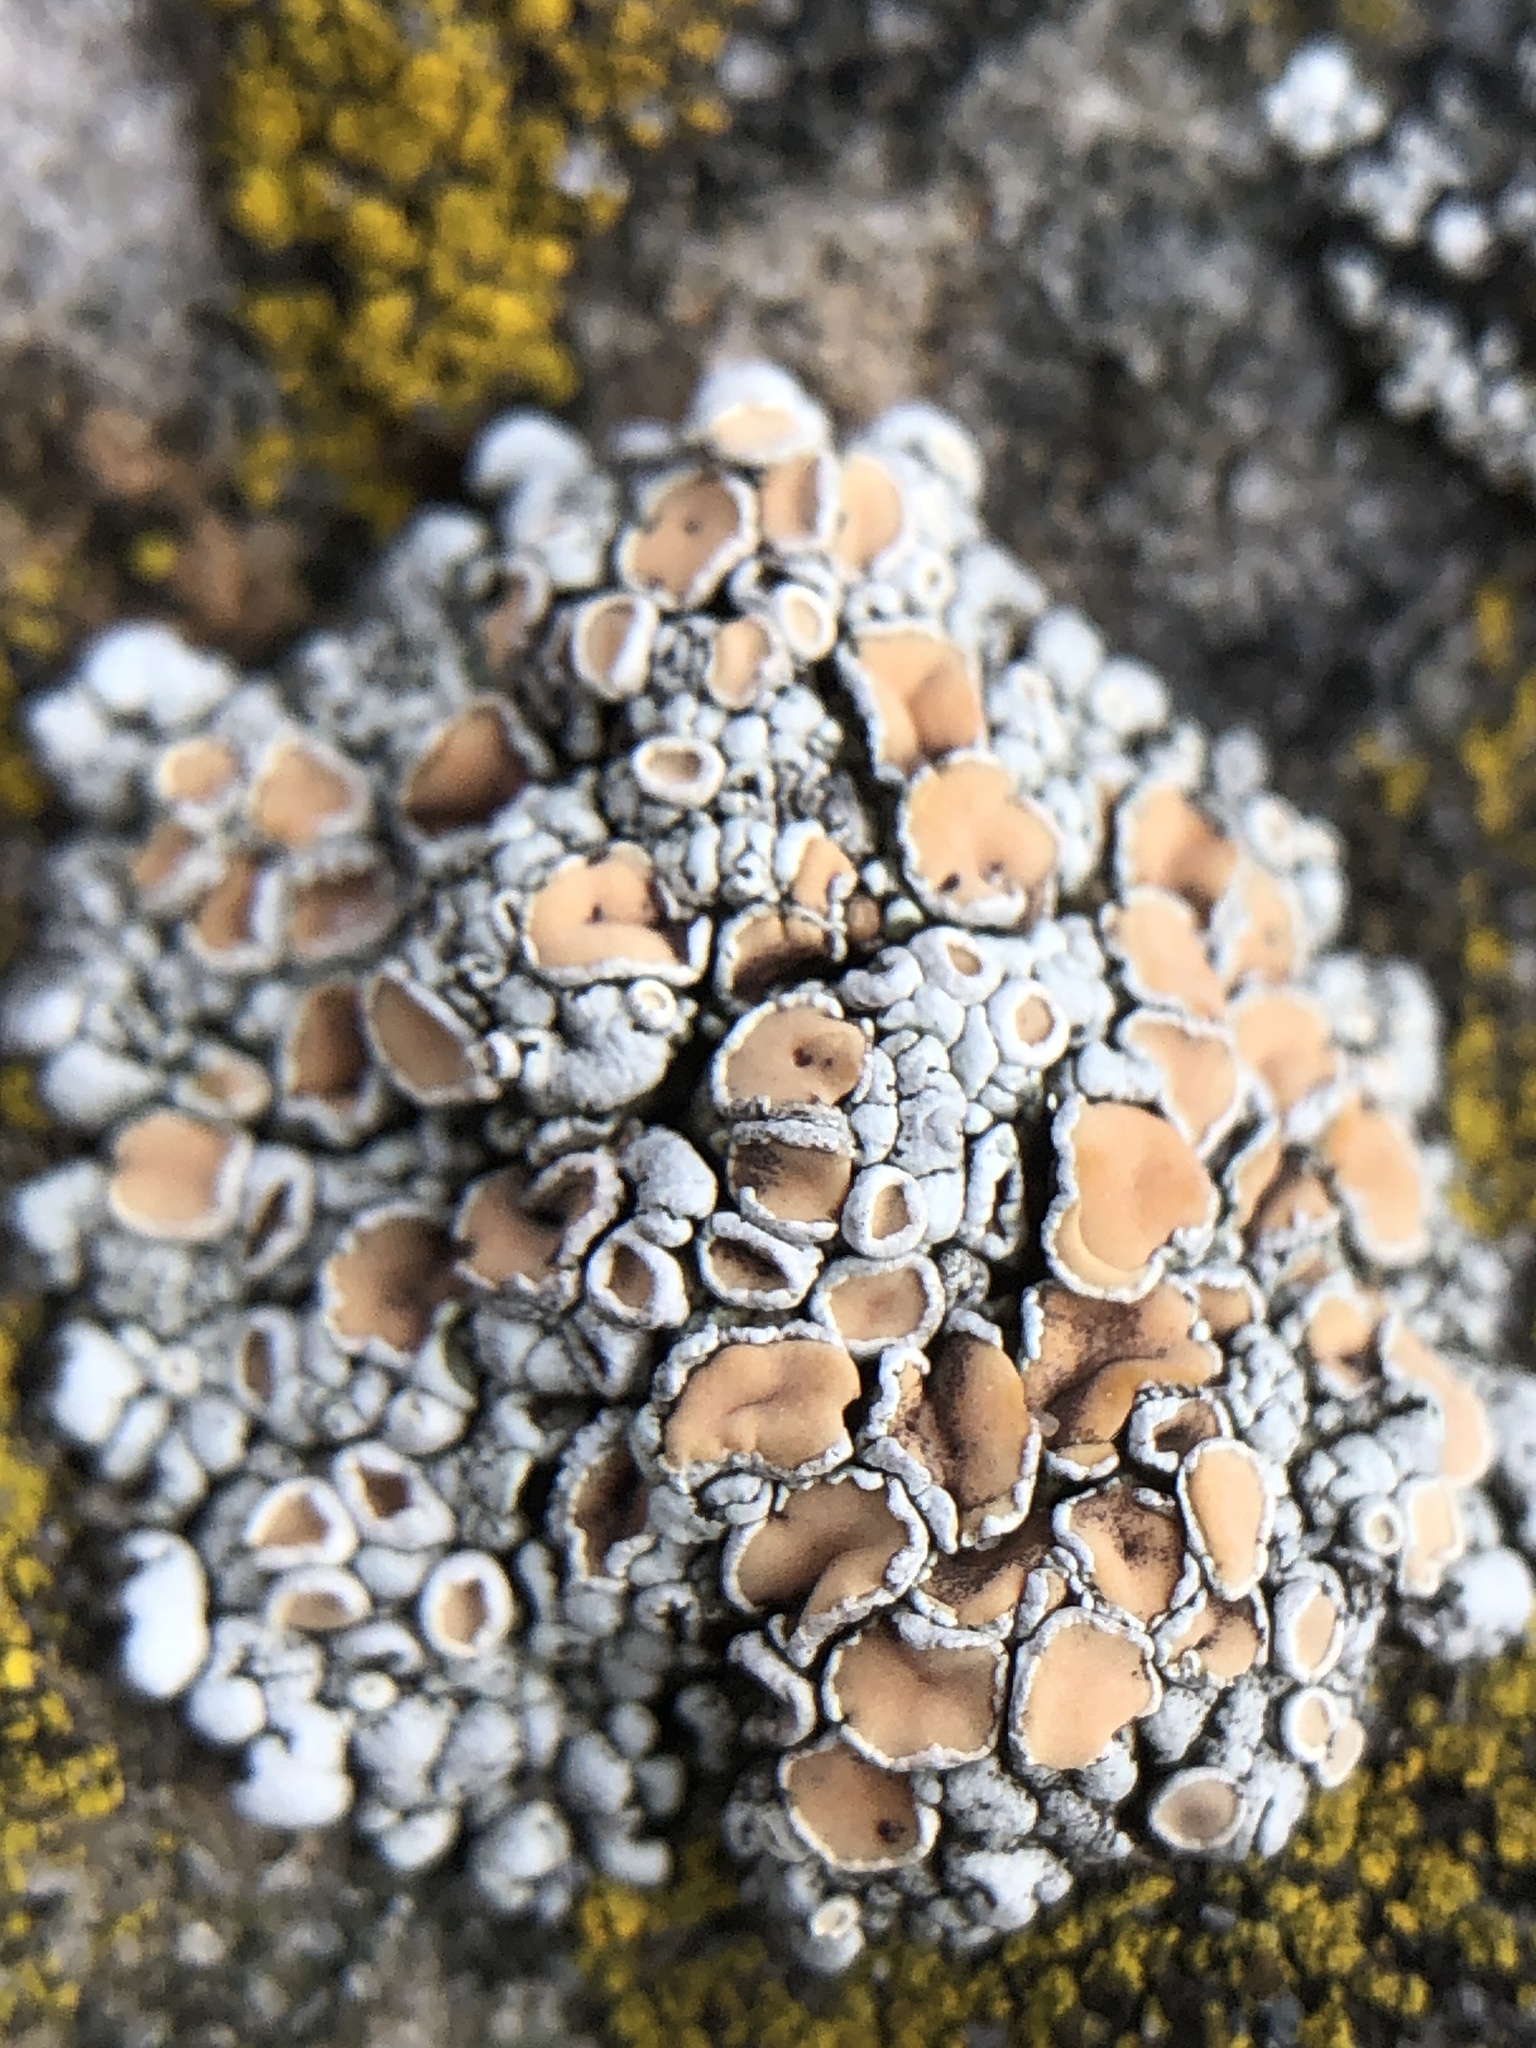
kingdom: Fungi
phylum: Ascomycota
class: Lecanoromycetes
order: Lecanorales
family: Lecanoraceae
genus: Sedelnikovaea
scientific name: Sedelnikovaea subdiscrepans
